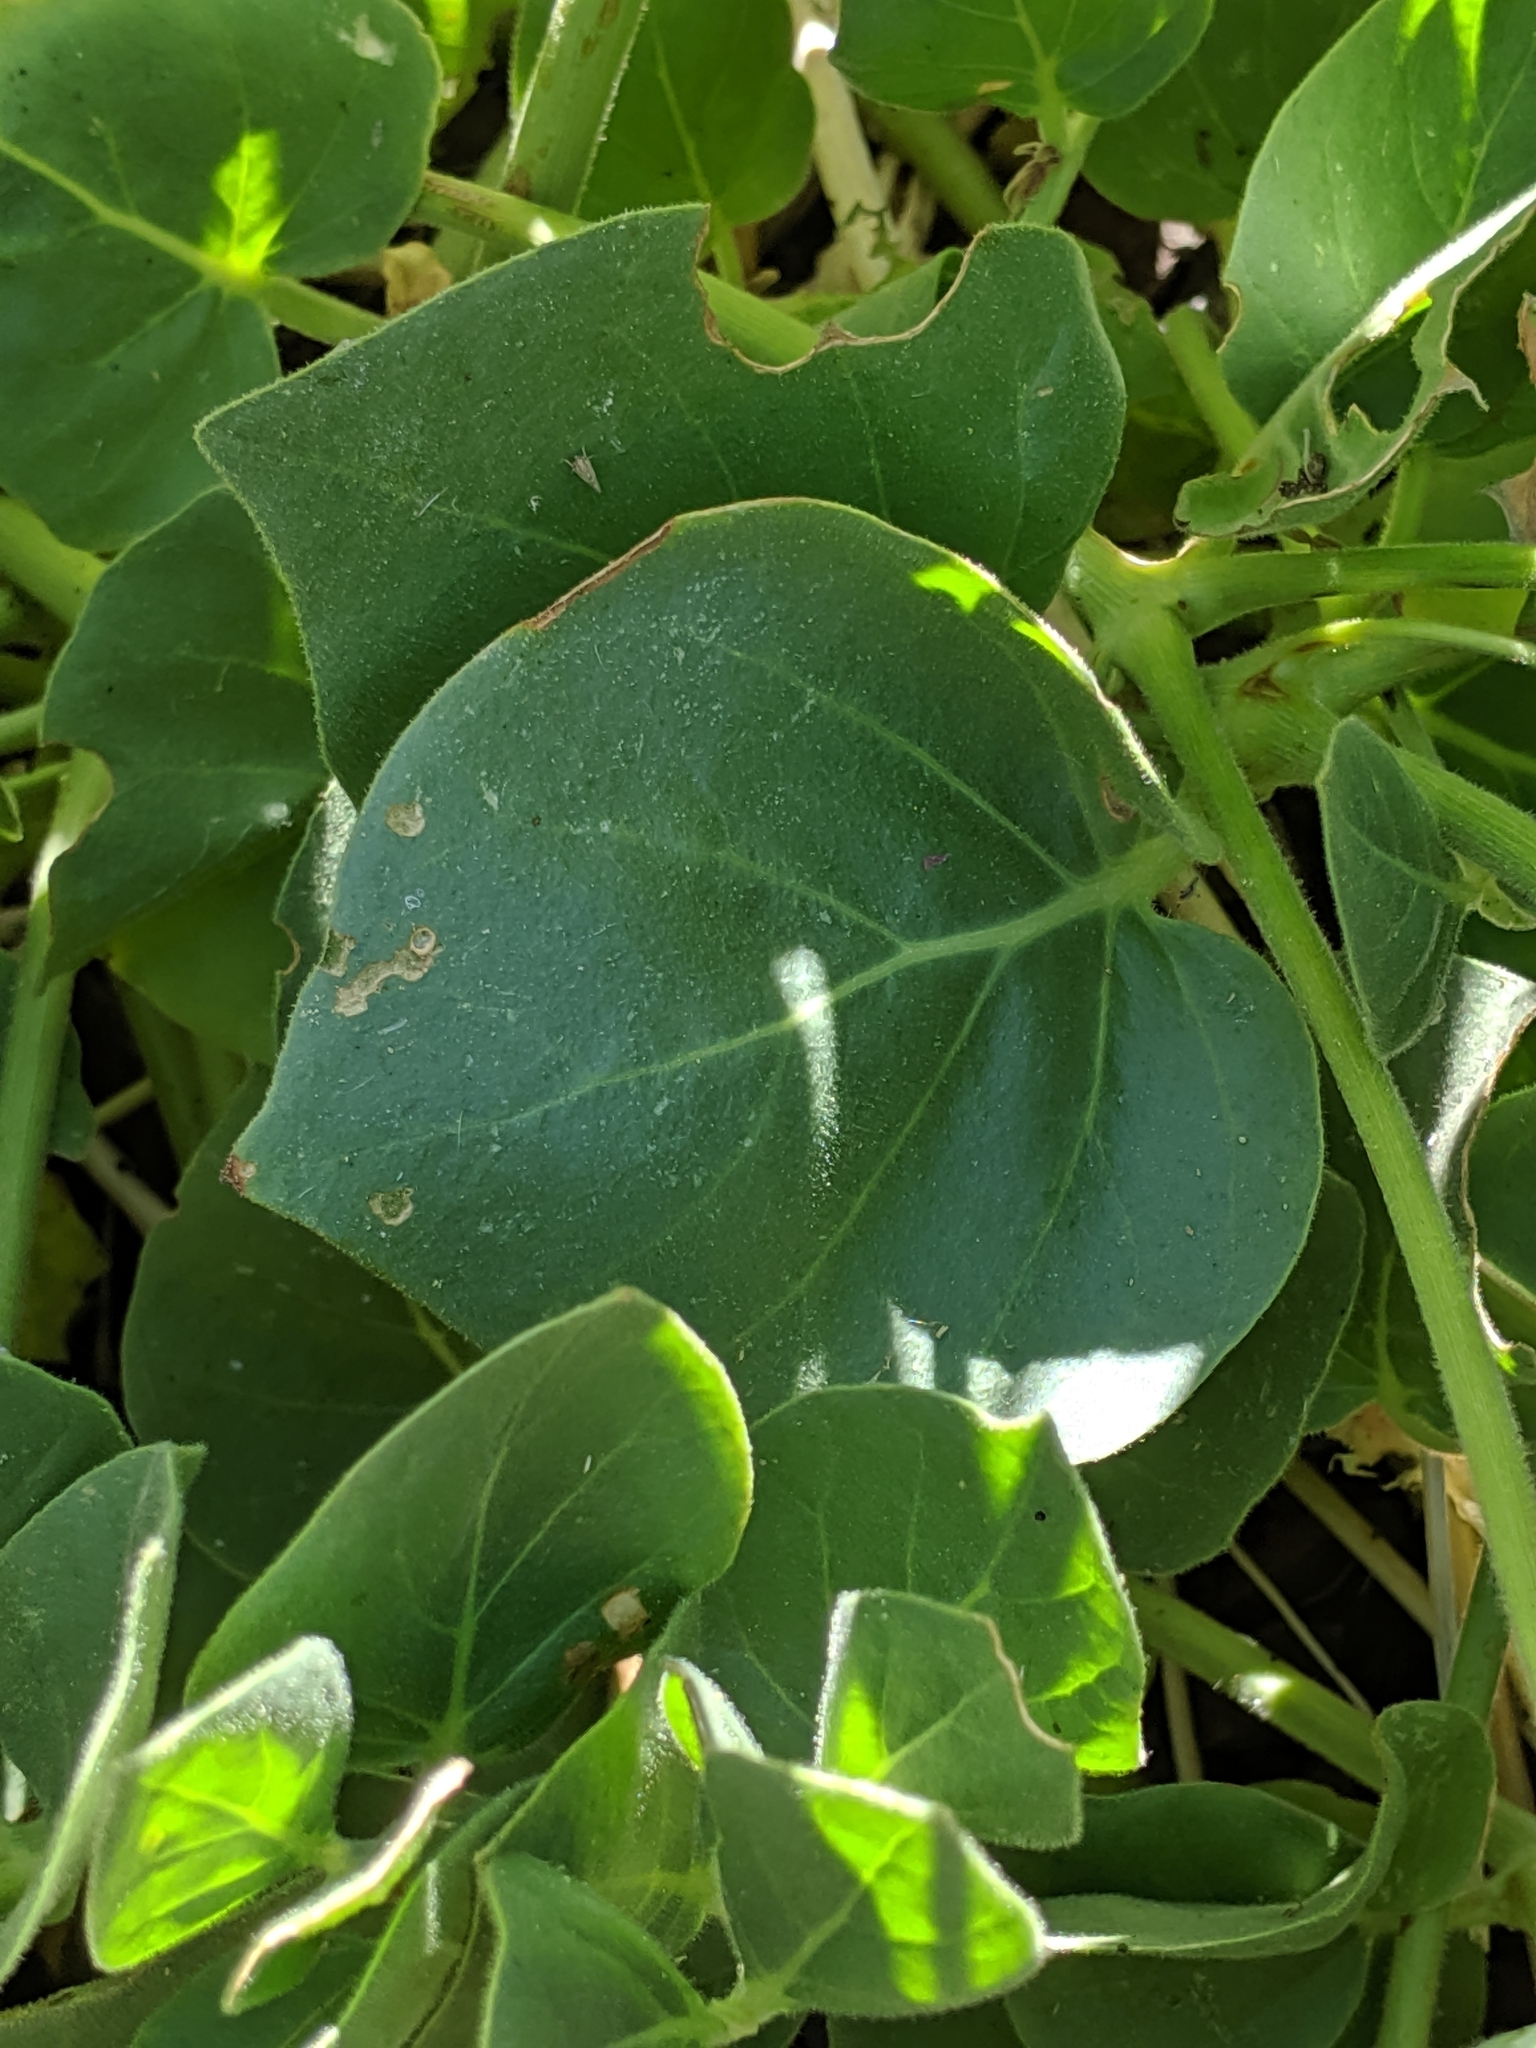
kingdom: Plantae
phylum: Tracheophyta
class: Magnoliopsida
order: Caryophyllales
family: Nyctaginaceae
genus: Mirabilis
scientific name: Mirabilis multiflora
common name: Froebel's four-o'clock
